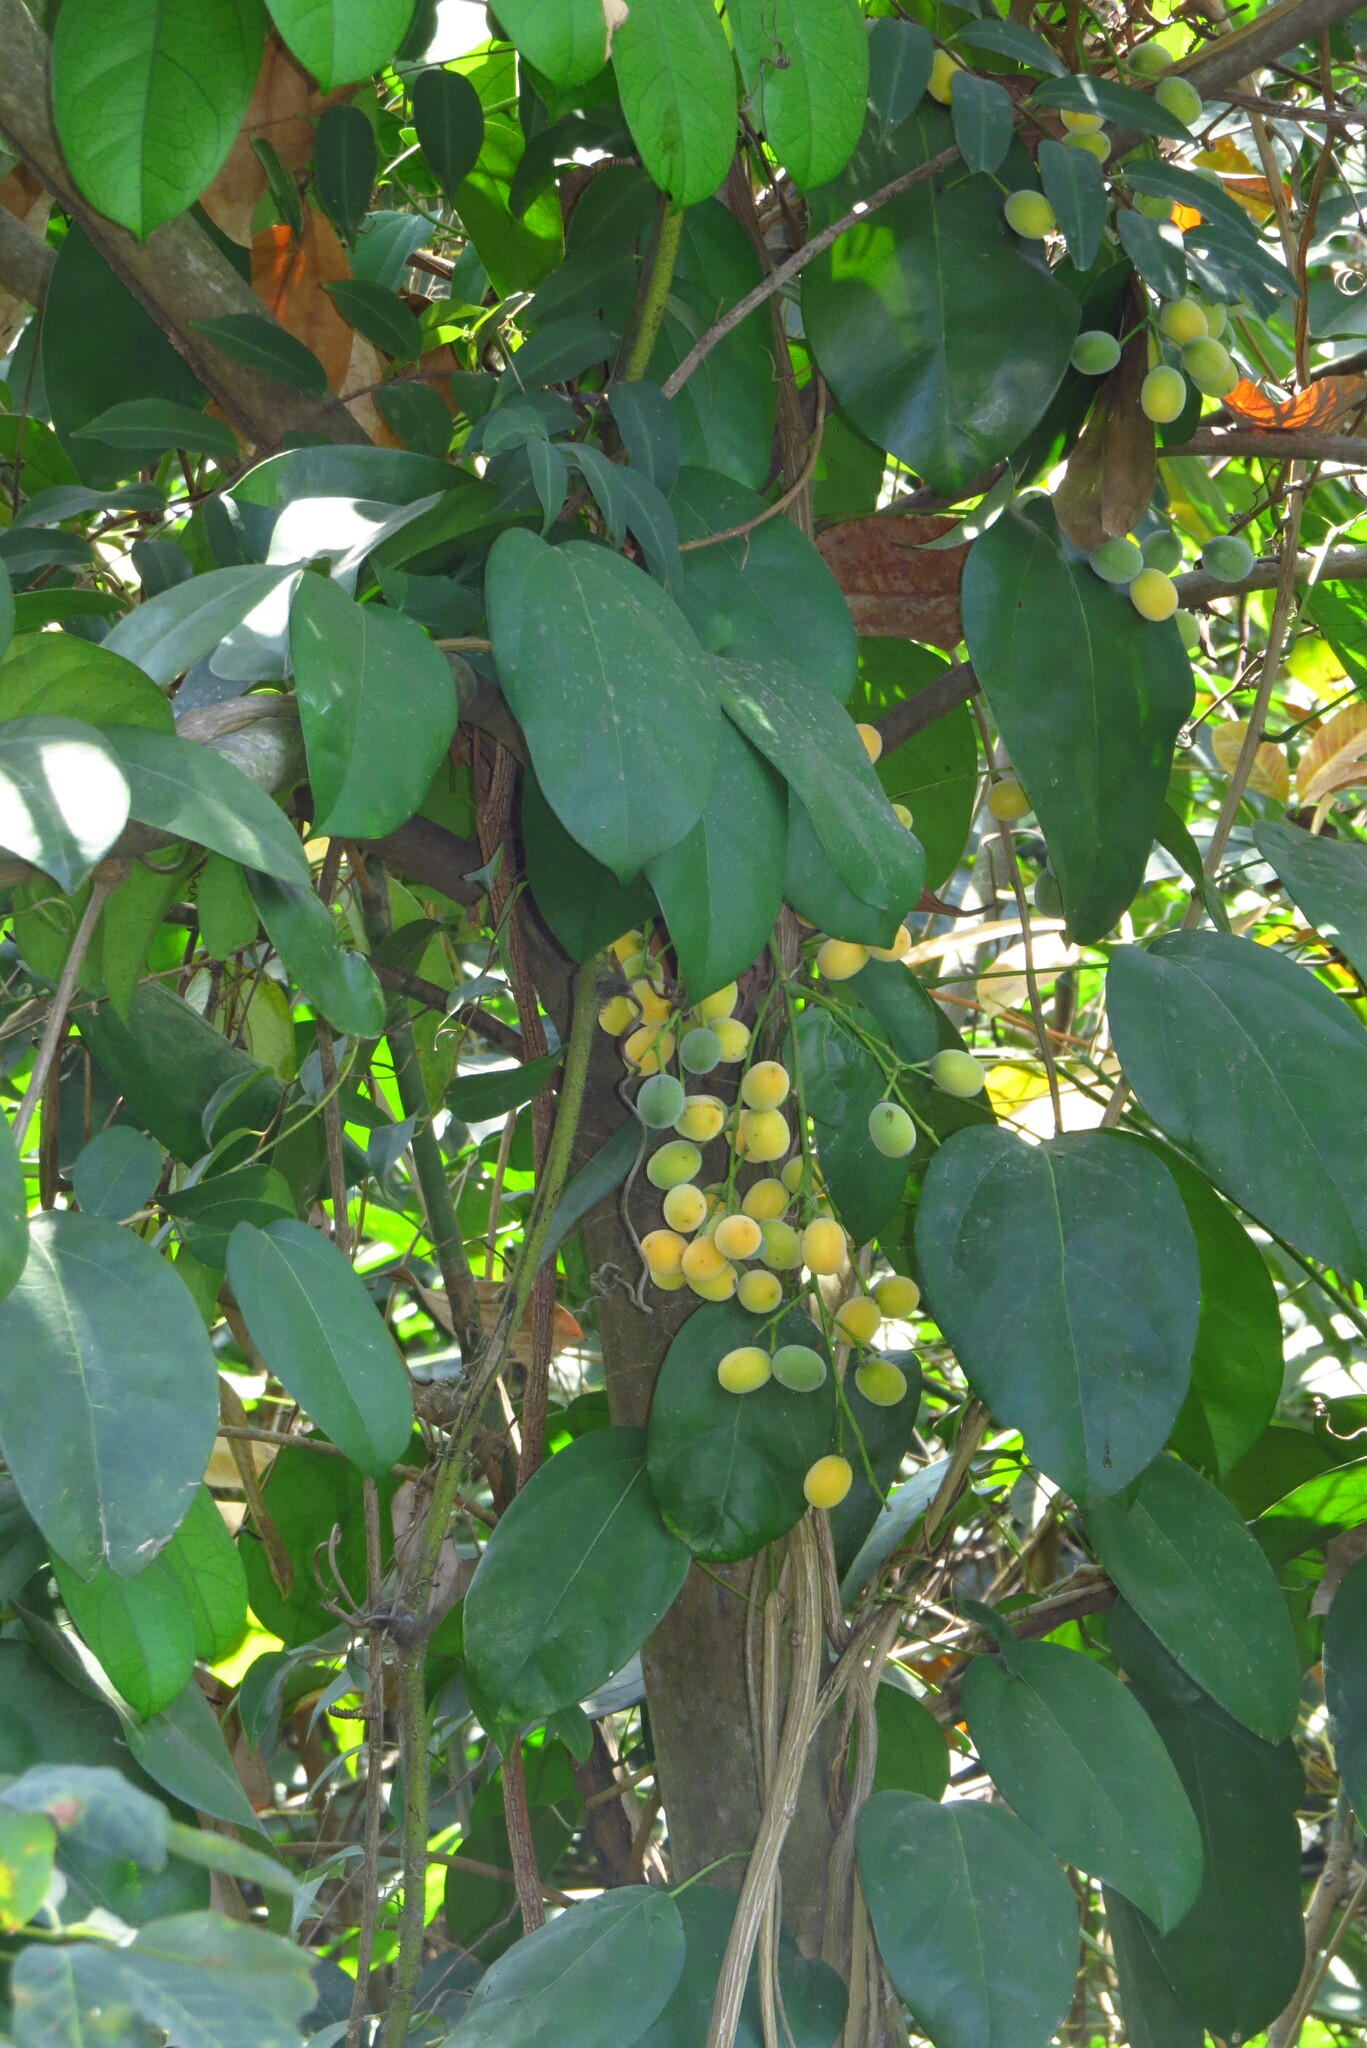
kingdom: Plantae
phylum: Tracheophyta
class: Magnoliopsida
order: Ranunculales
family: Menispermaceae
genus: Fibraurea
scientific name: Fibraurea tinctoria
